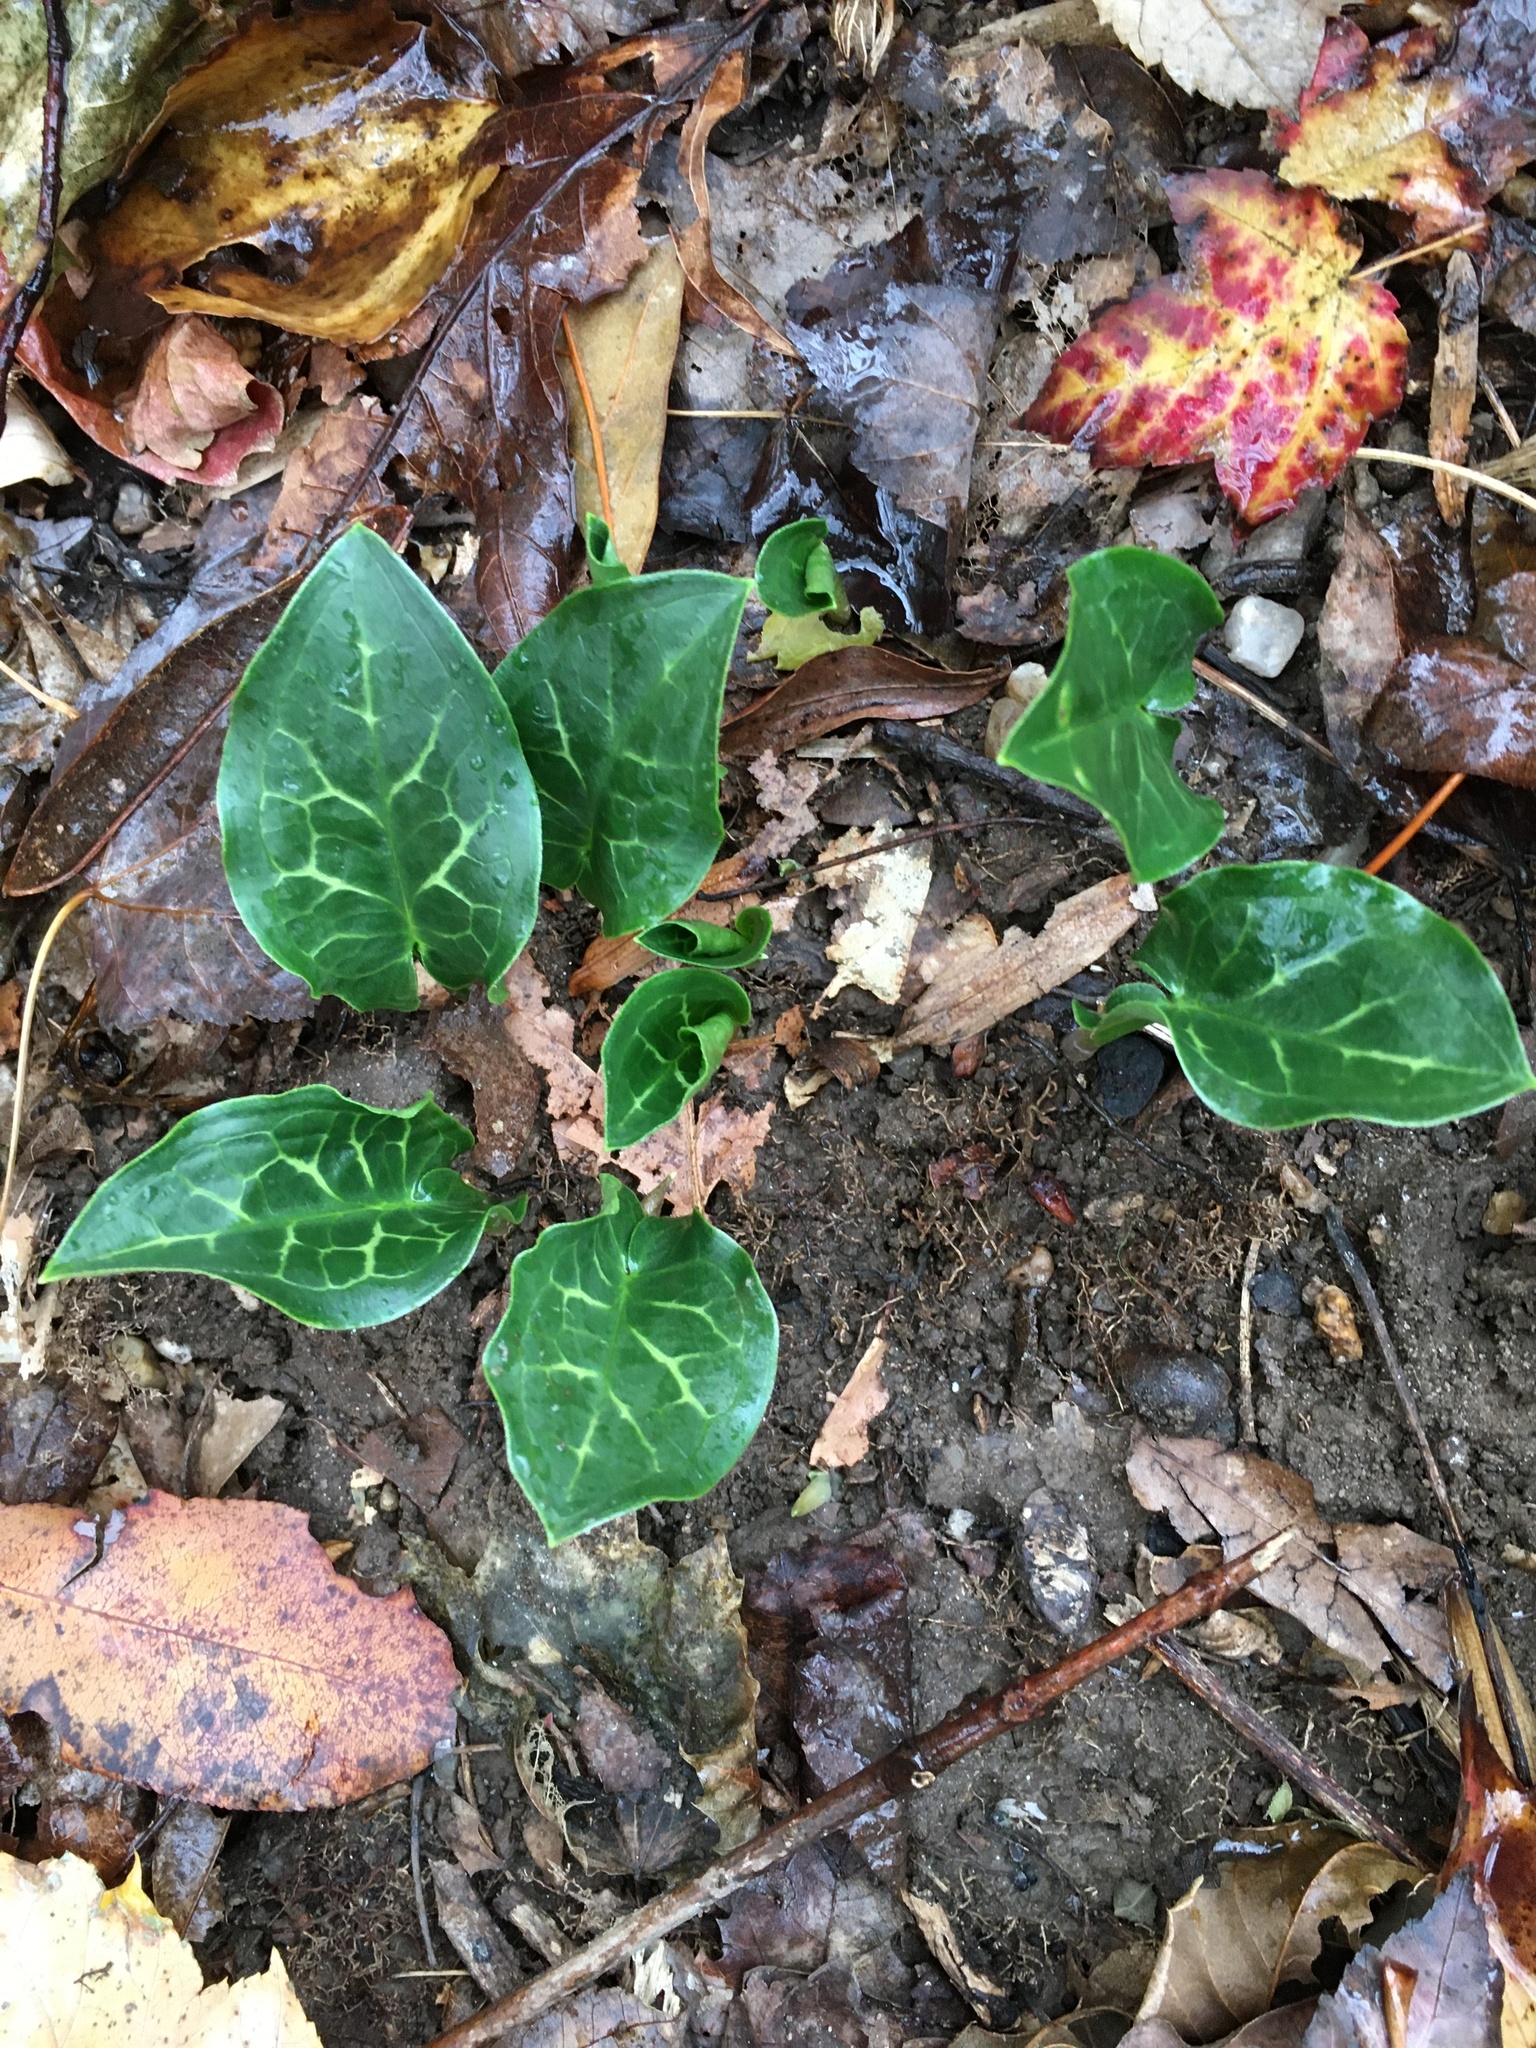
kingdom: Plantae
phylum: Tracheophyta
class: Liliopsida
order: Alismatales
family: Araceae
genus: Arum
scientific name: Arum italicum
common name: Italian lords-and-ladies
